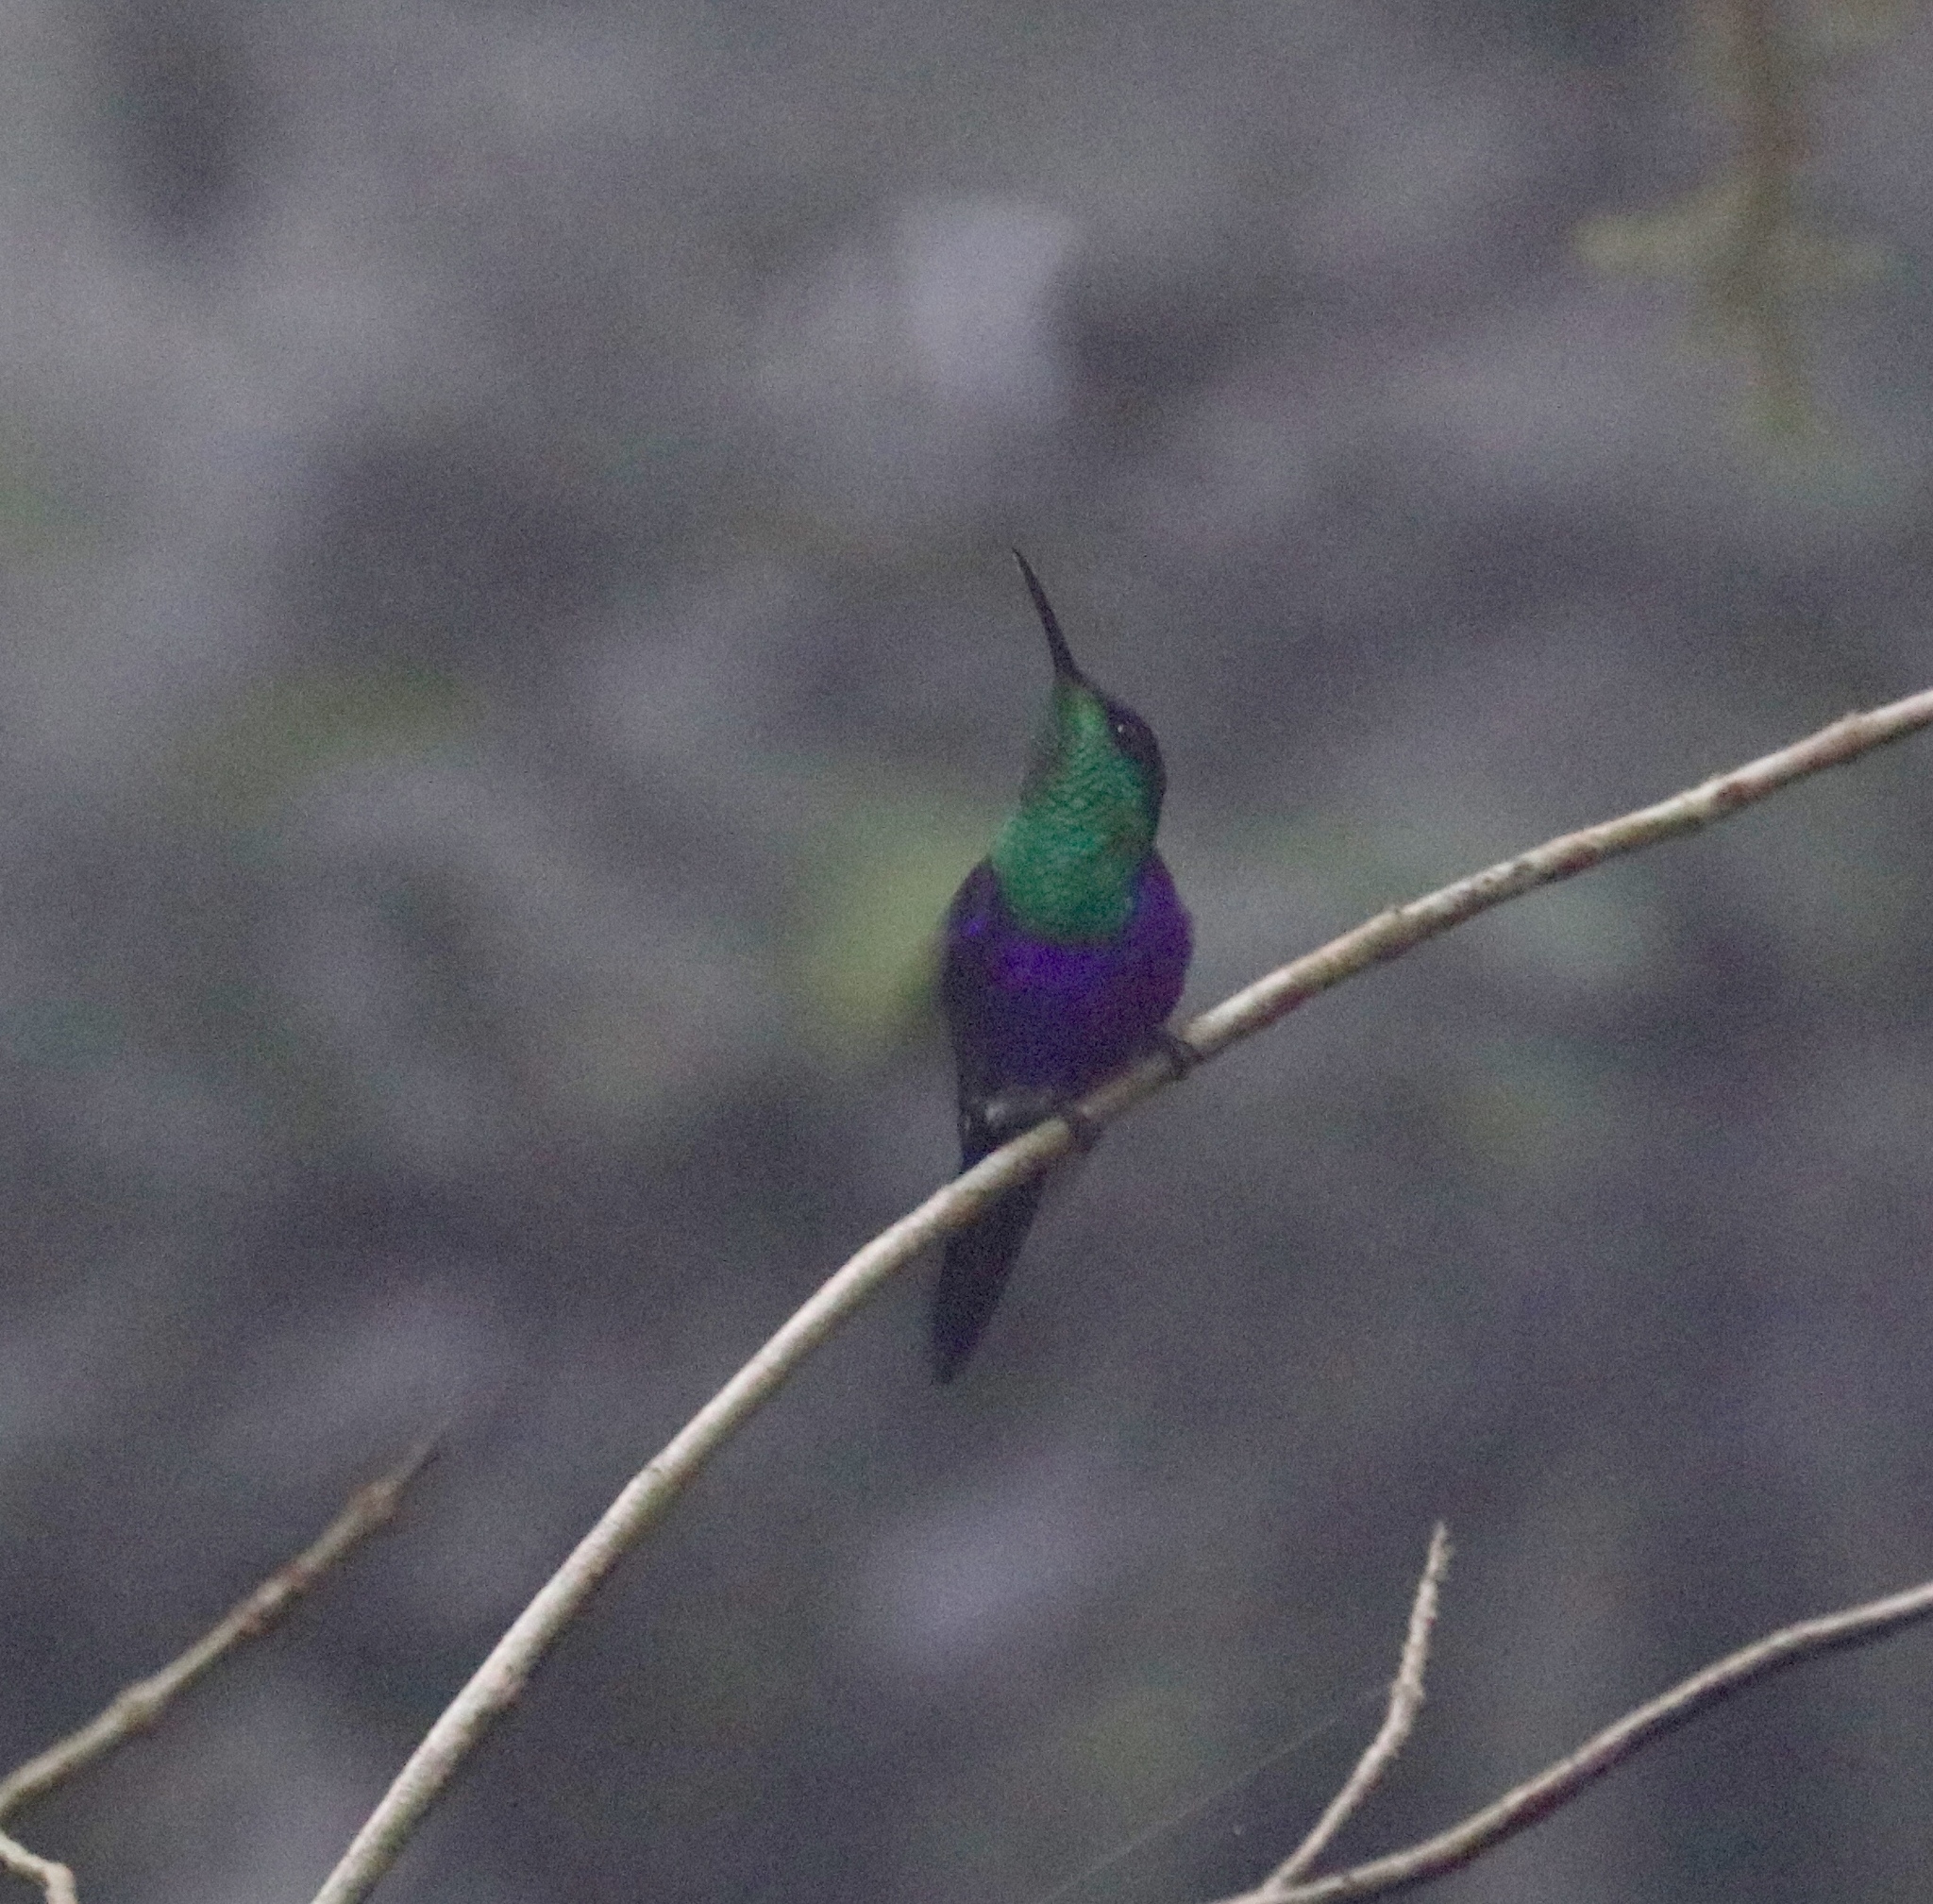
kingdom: Animalia
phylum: Chordata
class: Aves
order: Apodiformes
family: Trochilidae
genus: Thalurania
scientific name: Thalurania colombica
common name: Crowned woodnymph
